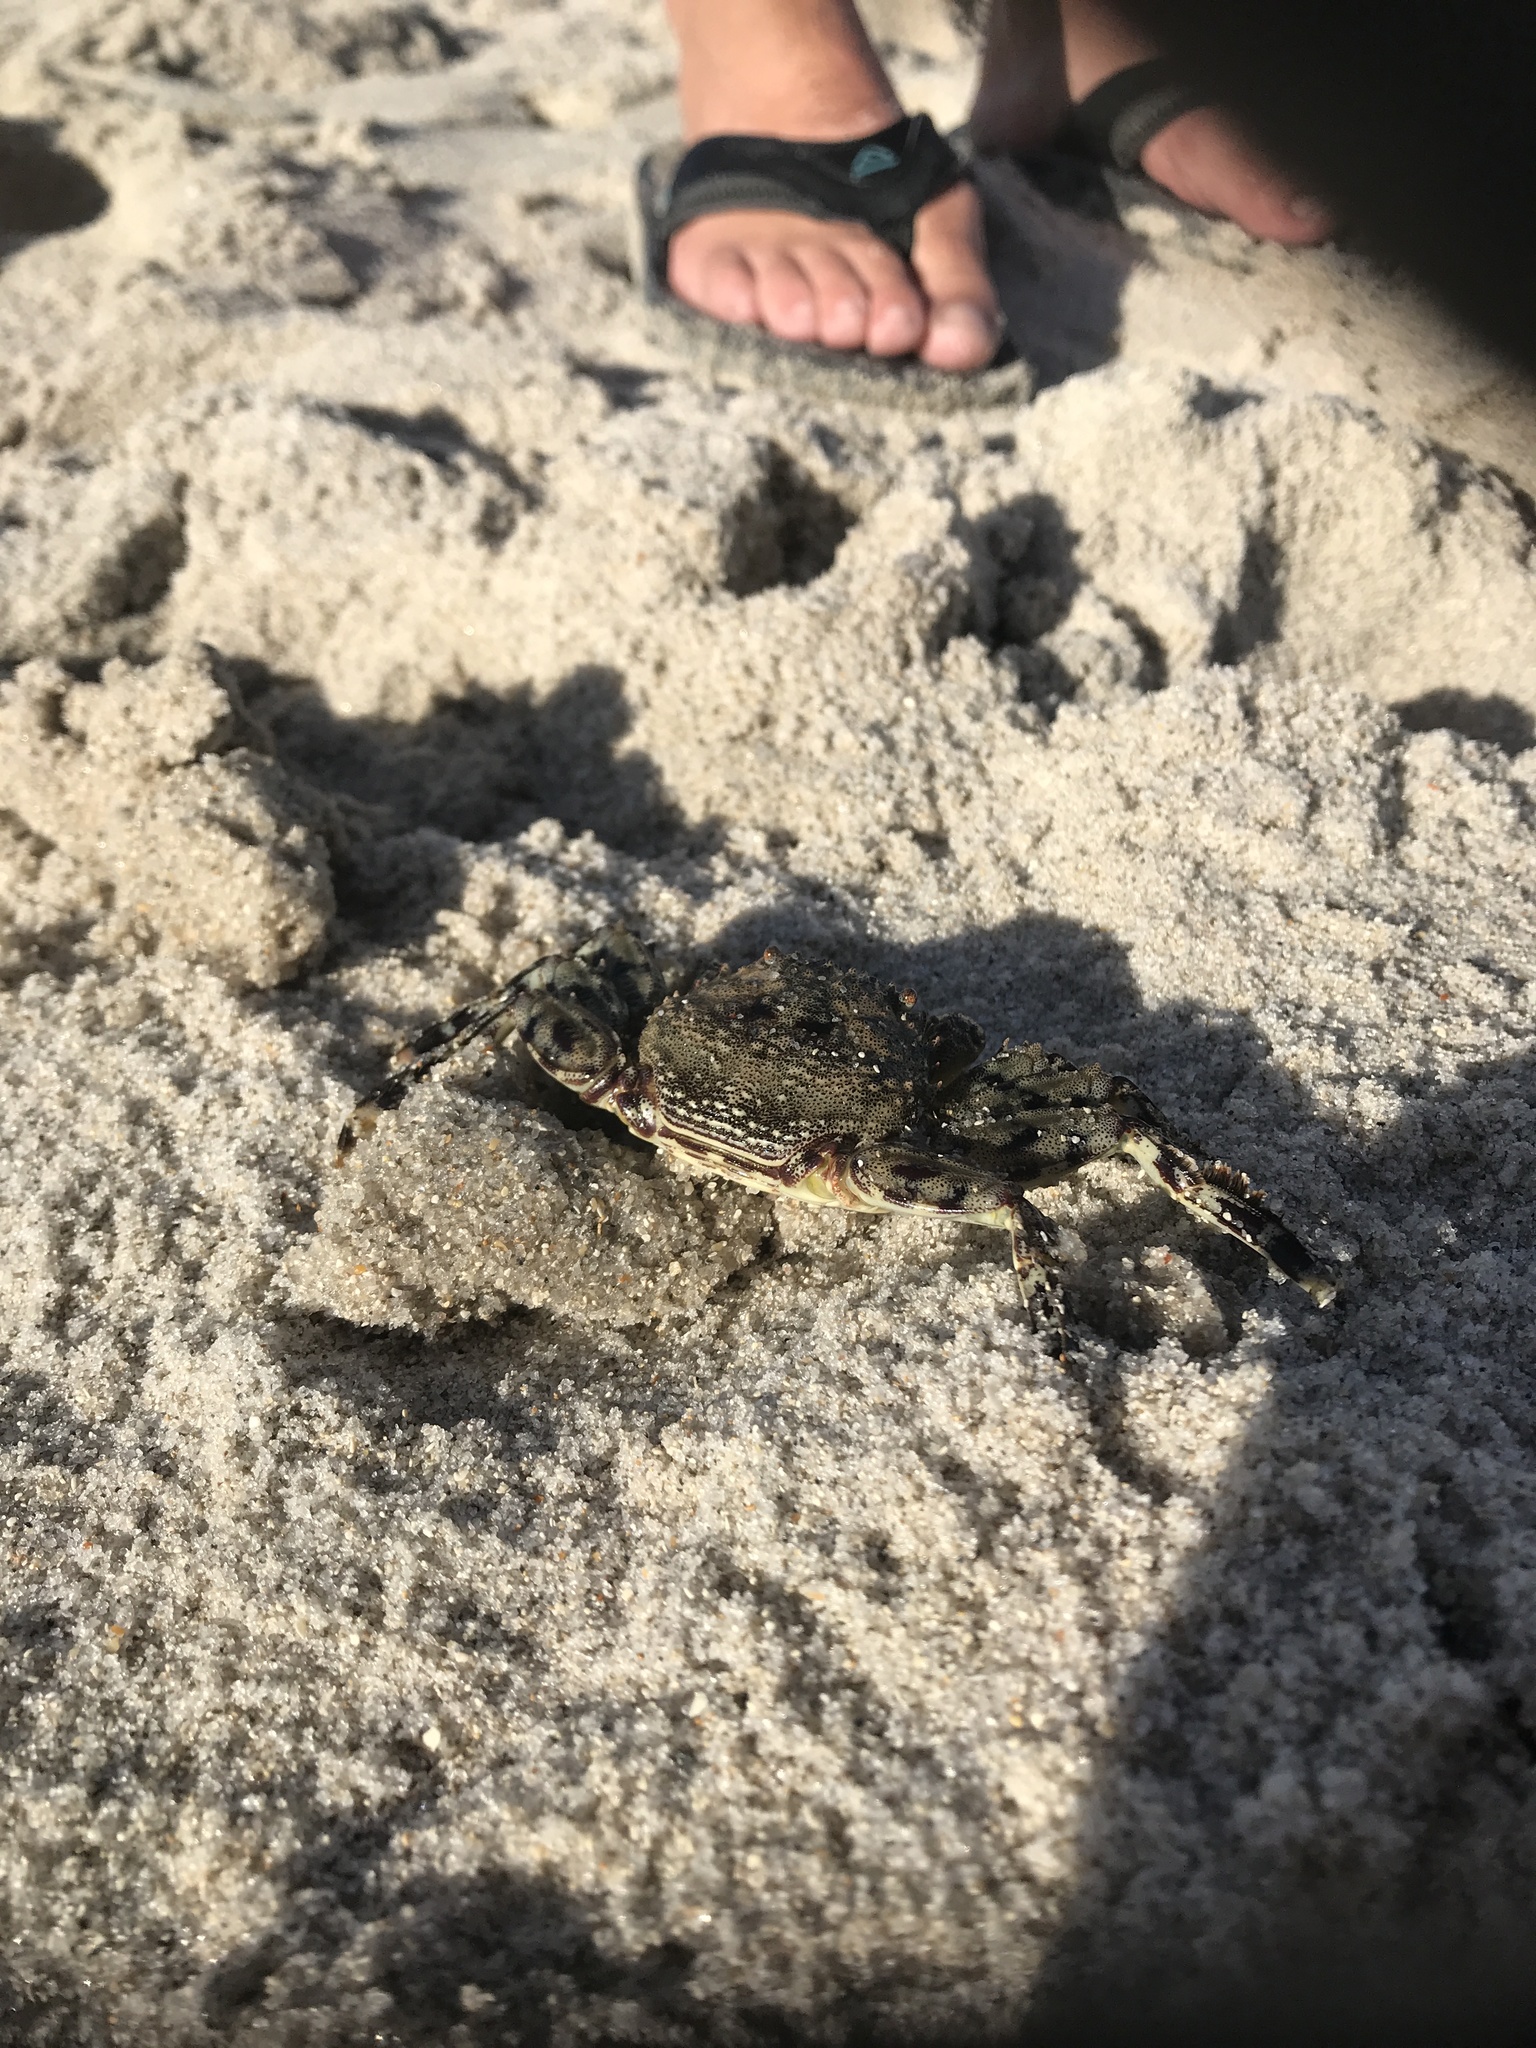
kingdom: Animalia
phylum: Arthropoda
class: Malacostraca
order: Decapoda
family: Plagusiidae
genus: Plagusia
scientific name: Plagusia depressa
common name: Flattened crab
